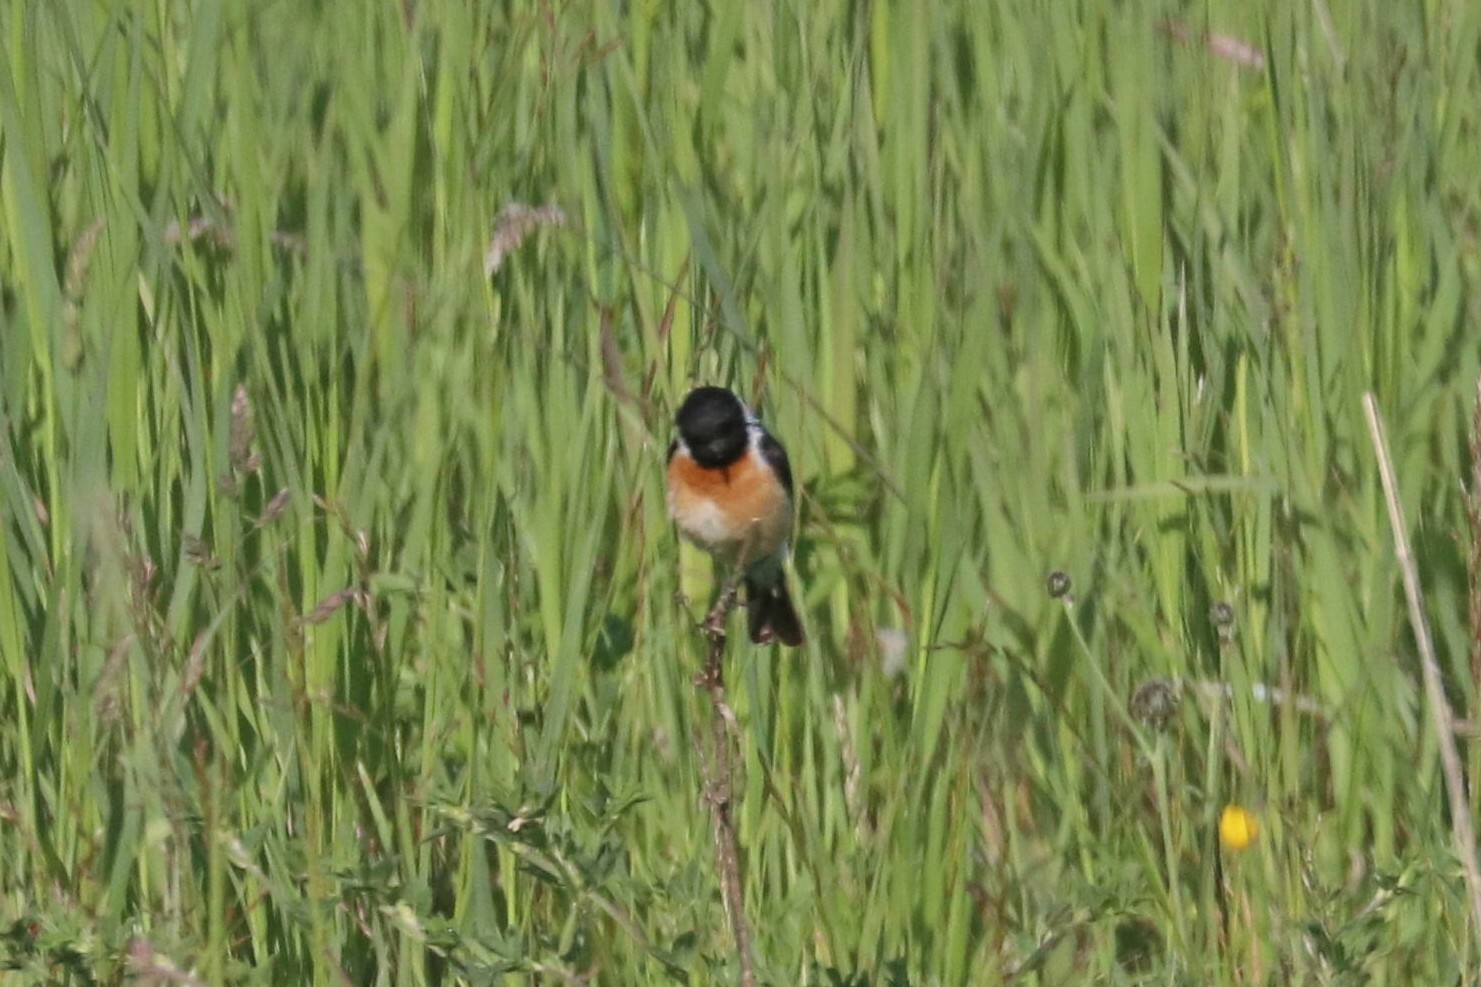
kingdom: Animalia
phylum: Chordata
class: Aves
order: Passeriformes
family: Muscicapidae
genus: Saxicola
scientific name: Saxicola maurus
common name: Siberian stonechat
